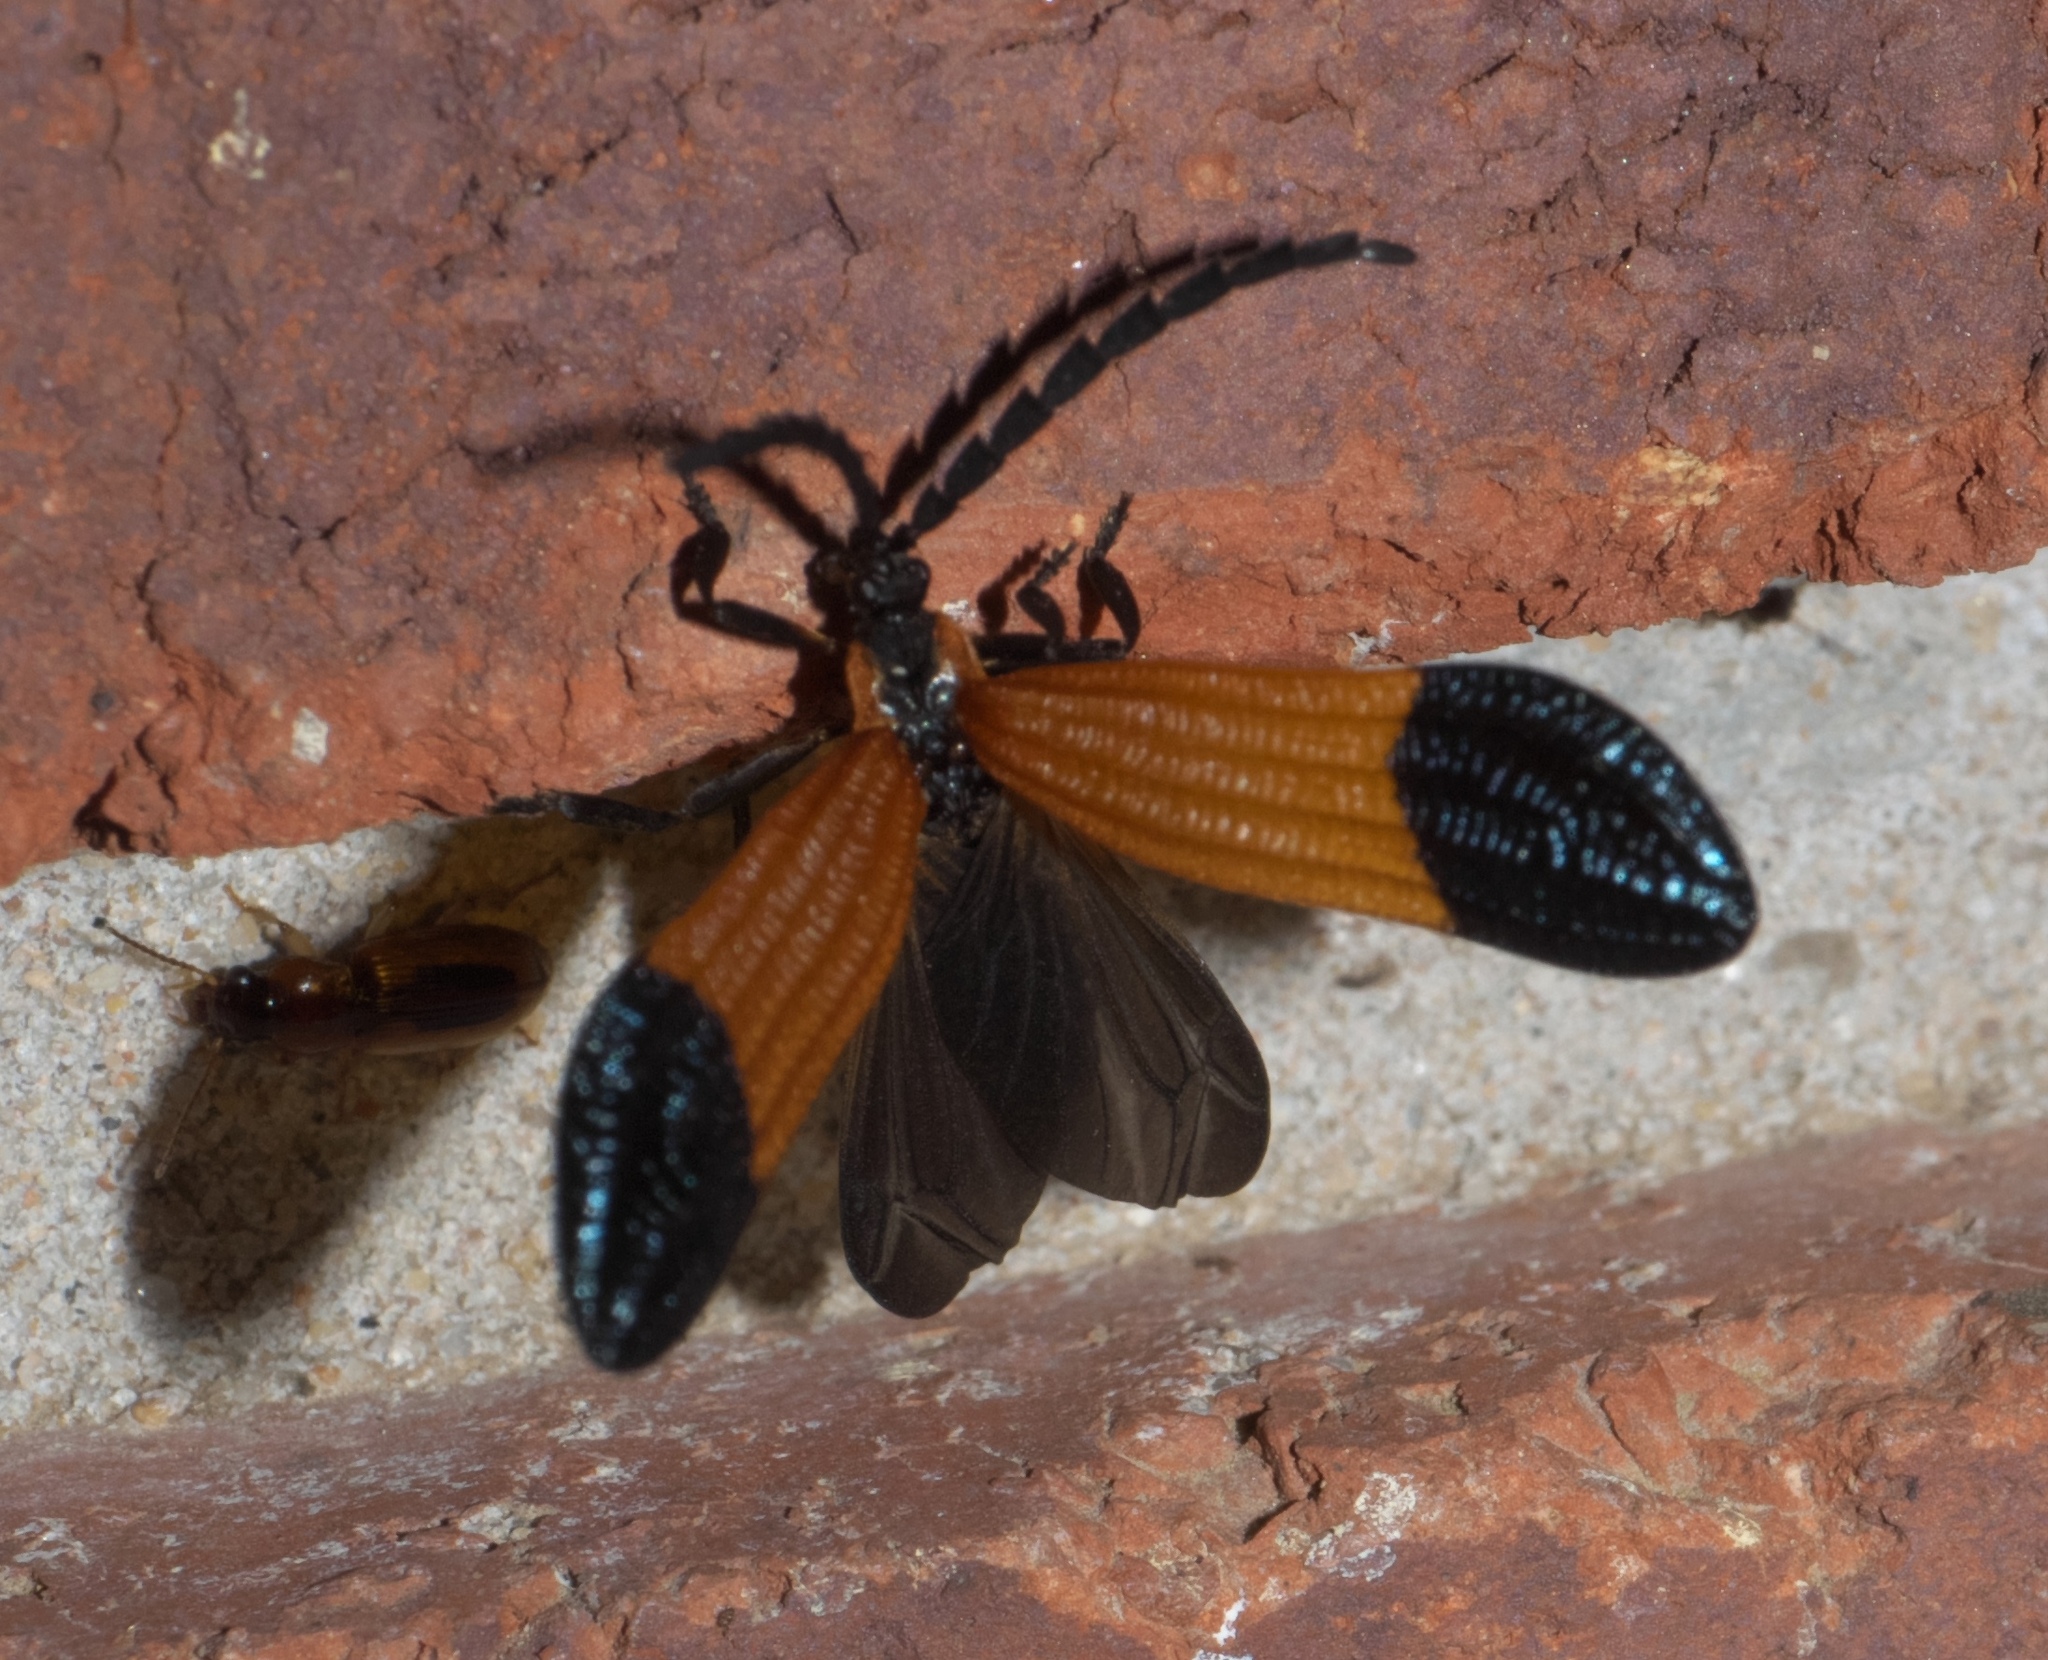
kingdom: Animalia
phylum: Arthropoda
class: Insecta
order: Coleoptera
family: Lycidae
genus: Calopteron
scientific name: Calopteron terminale
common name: End band net-winged beetle
